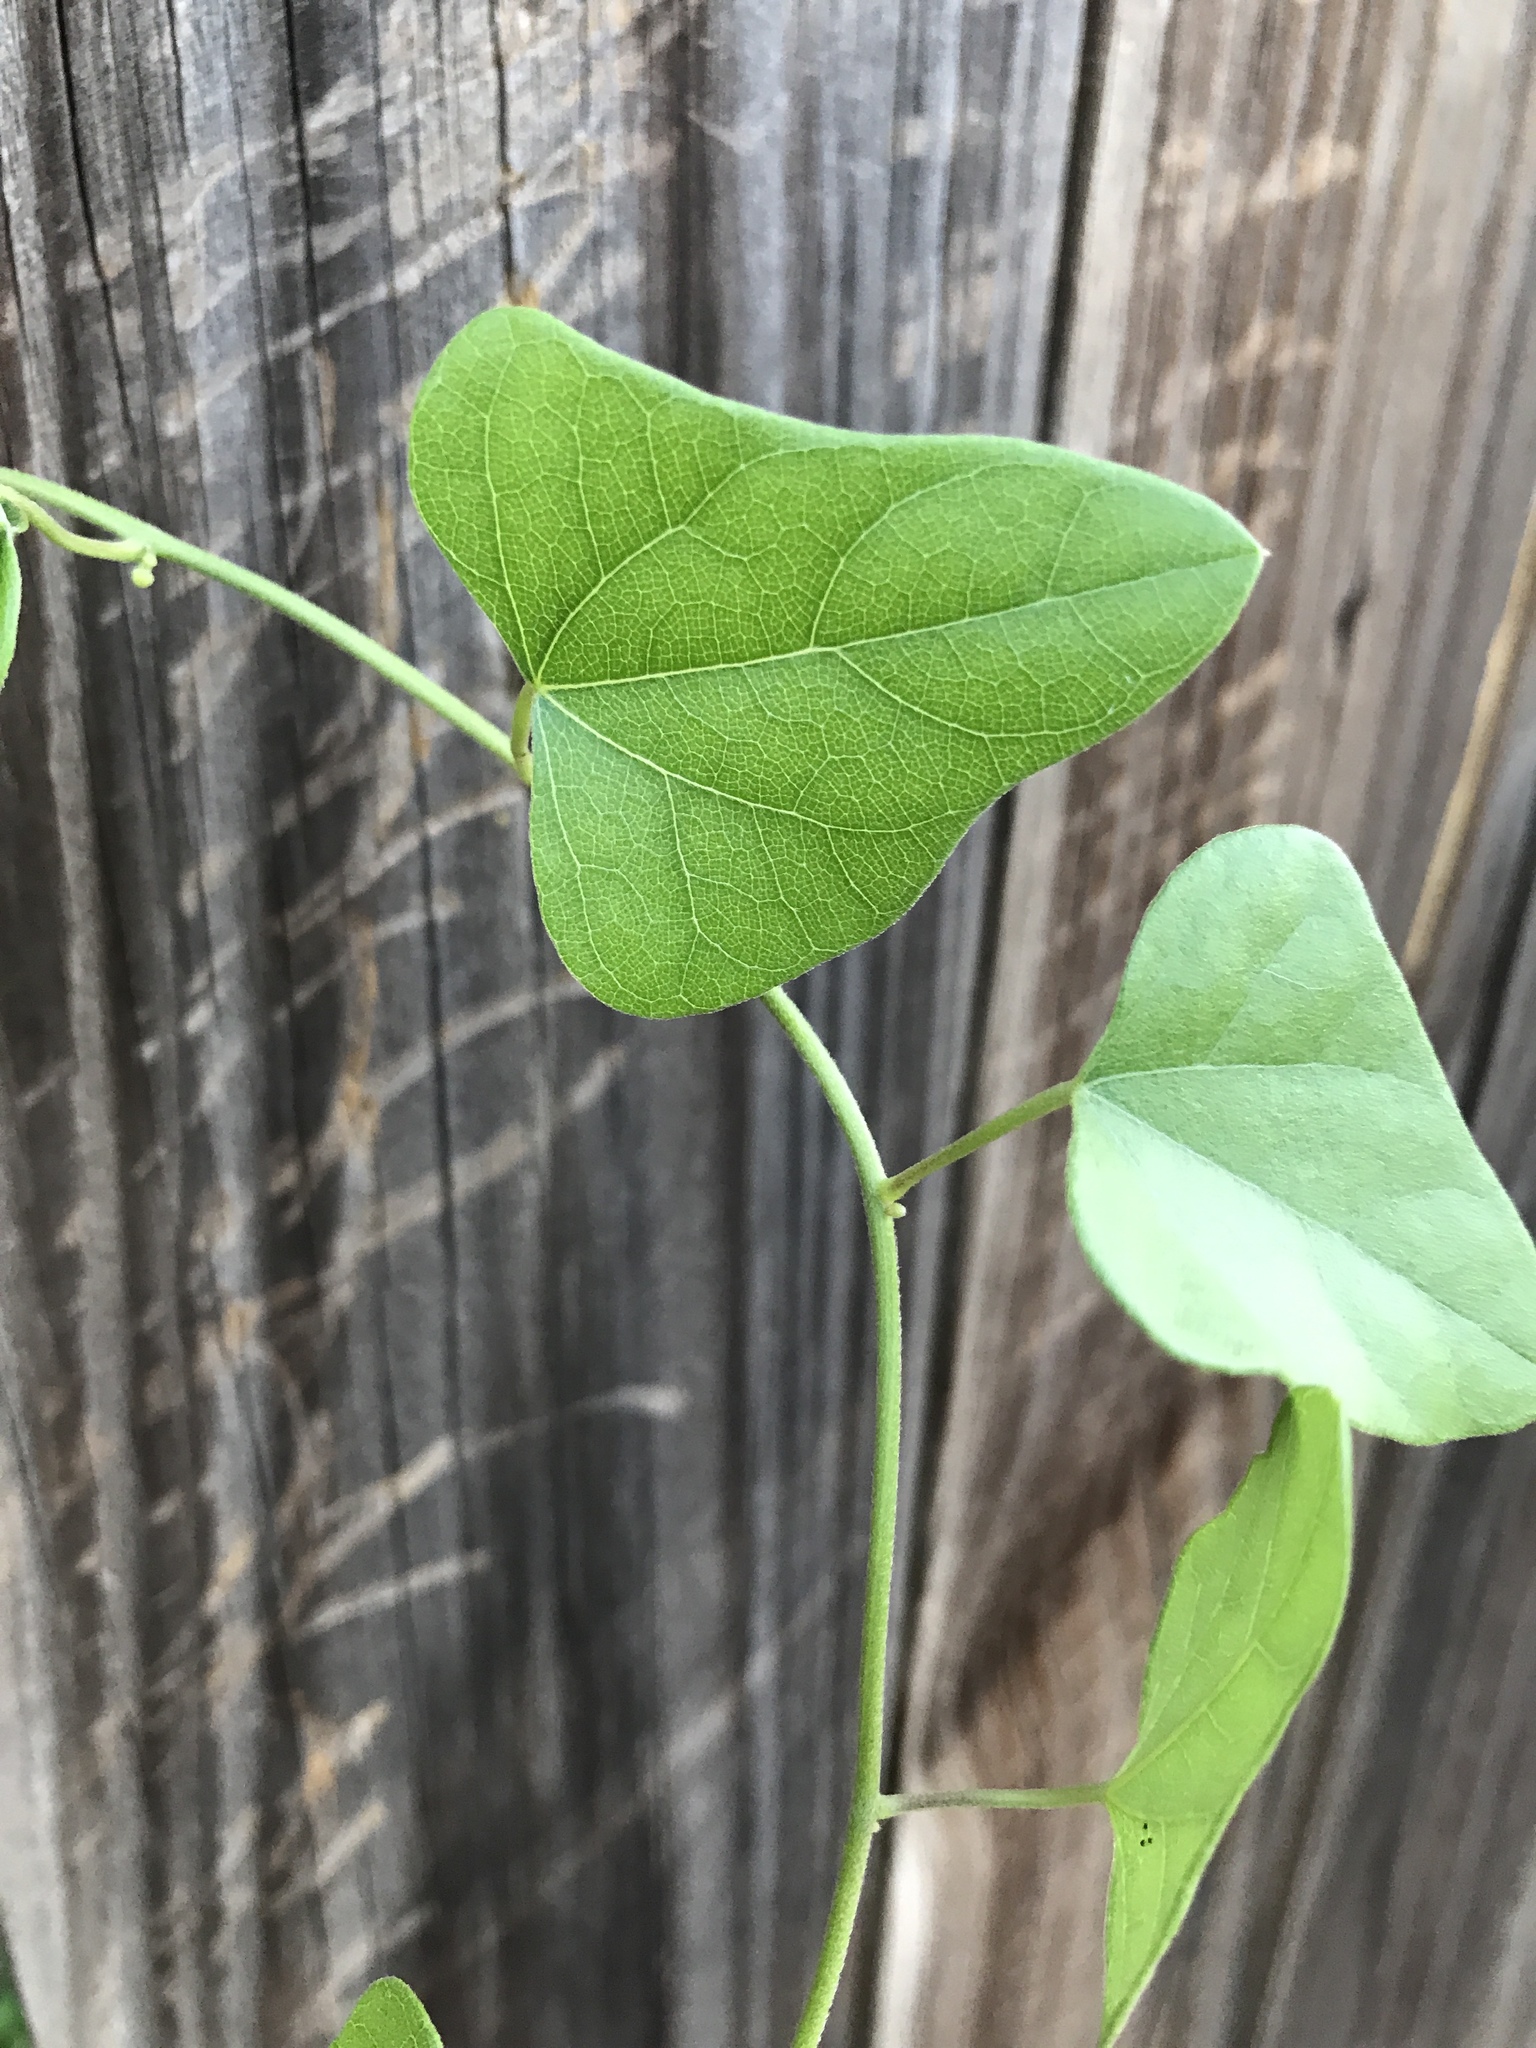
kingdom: Plantae
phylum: Tracheophyta
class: Magnoliopsida
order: Ranunculales
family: Menispermaceae
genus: Cocculus
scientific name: Cocculus carolinus
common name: Carolina moonseed
